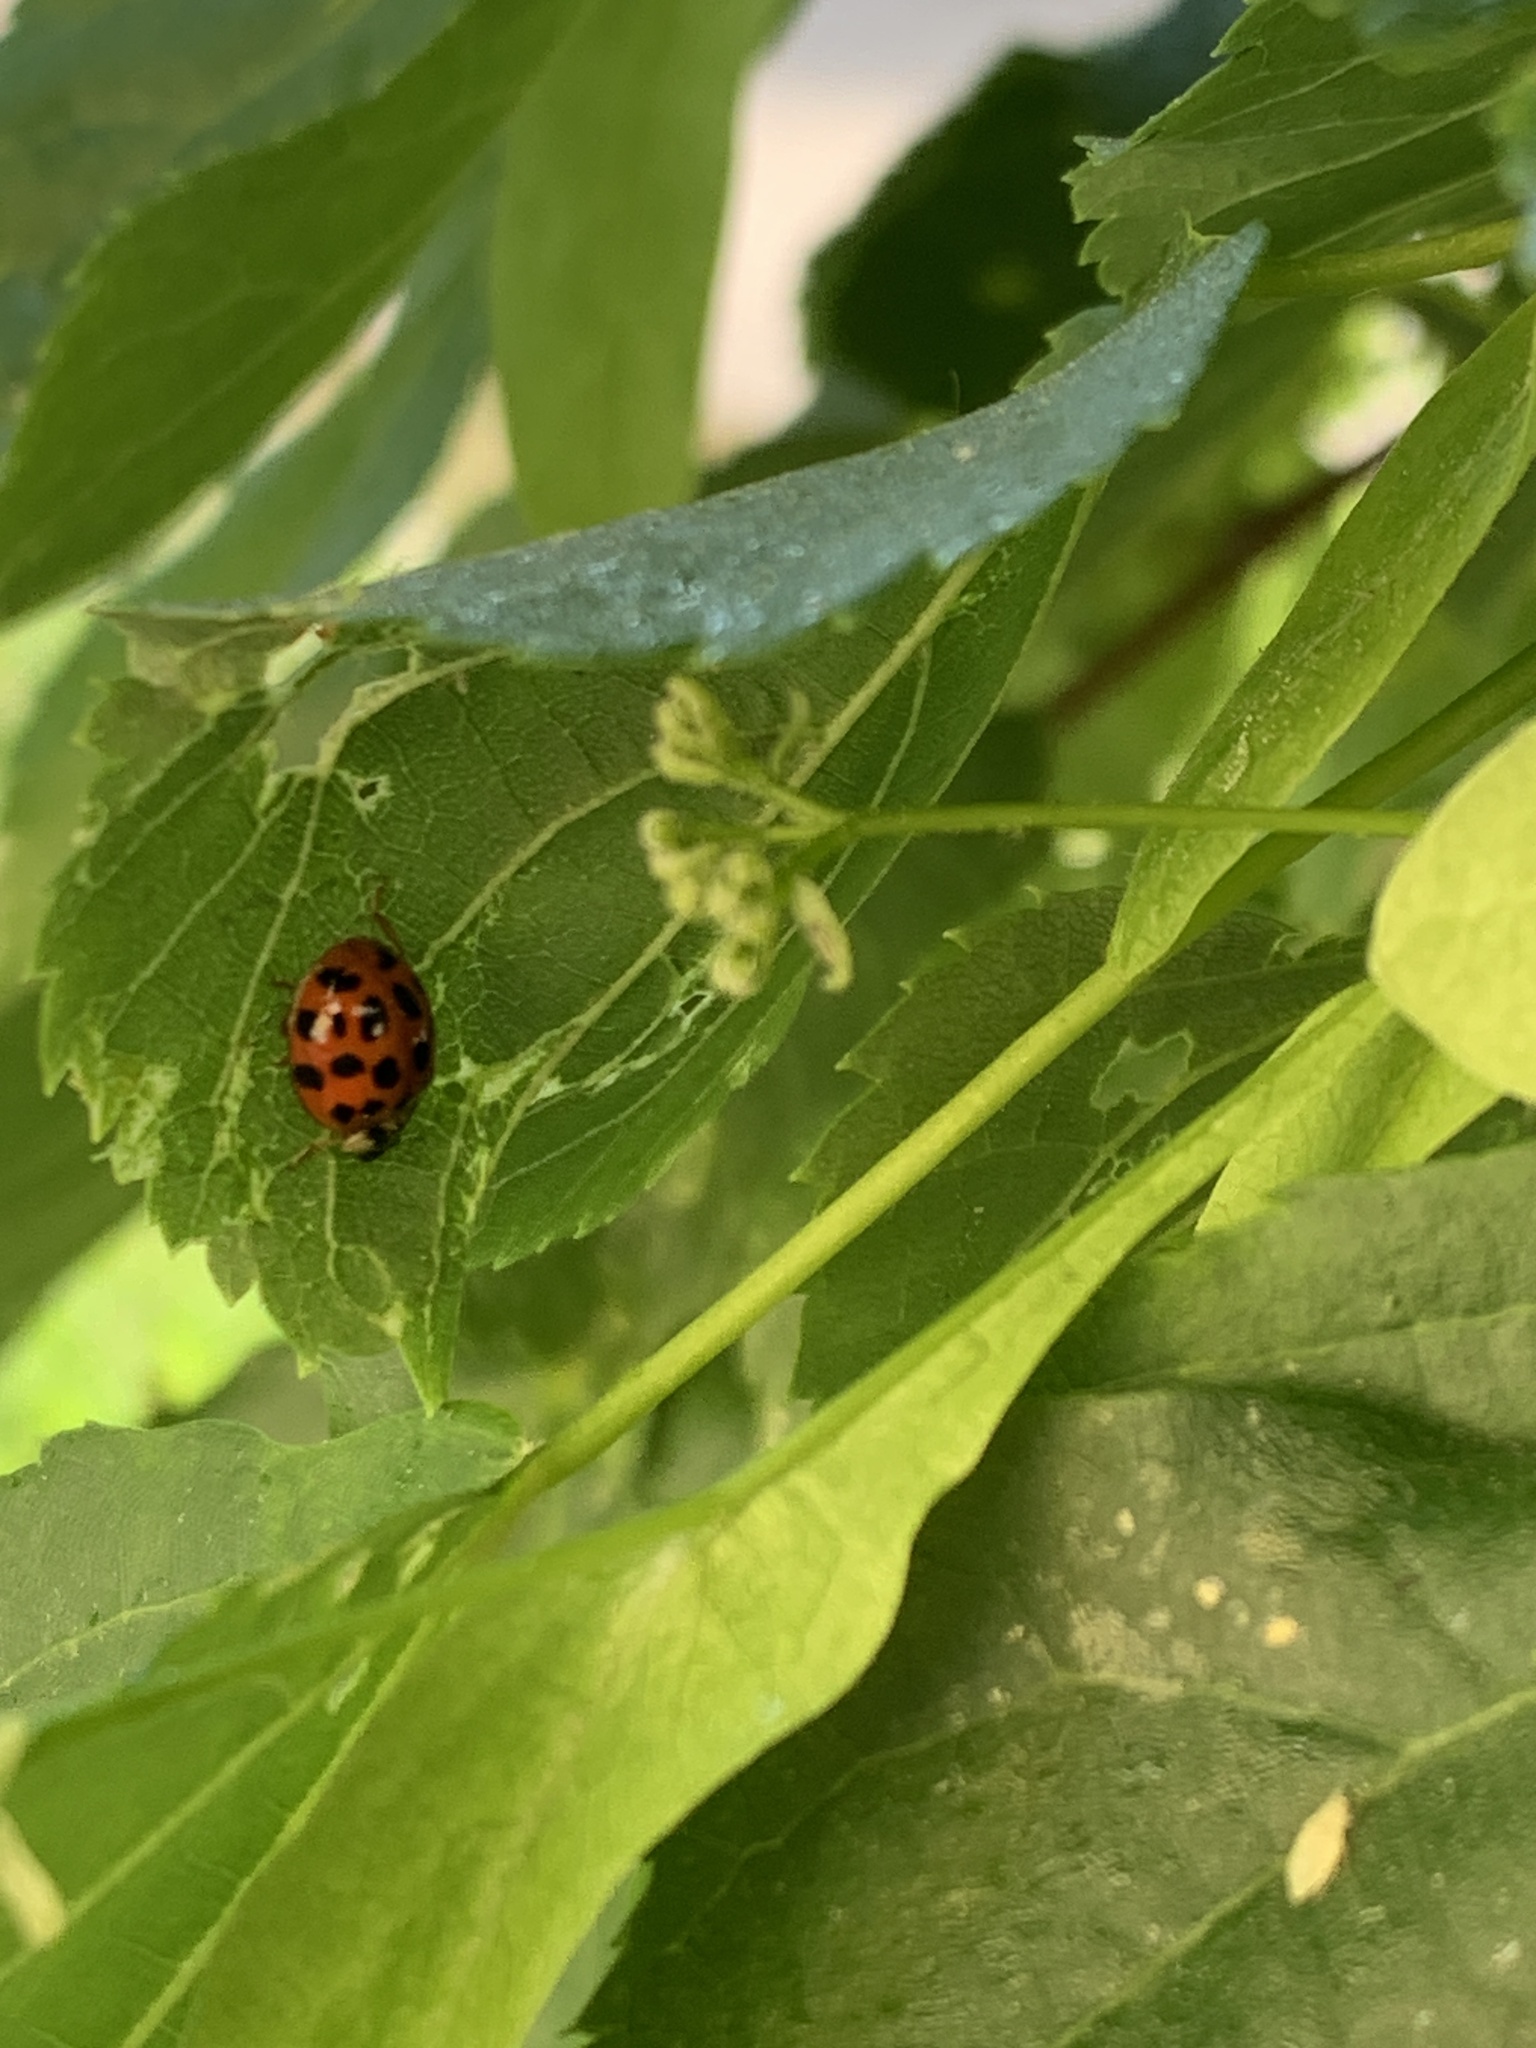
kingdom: Animalia
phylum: Arthropoda
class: Insecta
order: Coleoptera
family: Coccinellidae
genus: Harmonia
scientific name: Harmonia axyridis
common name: Harlequin ladybird
